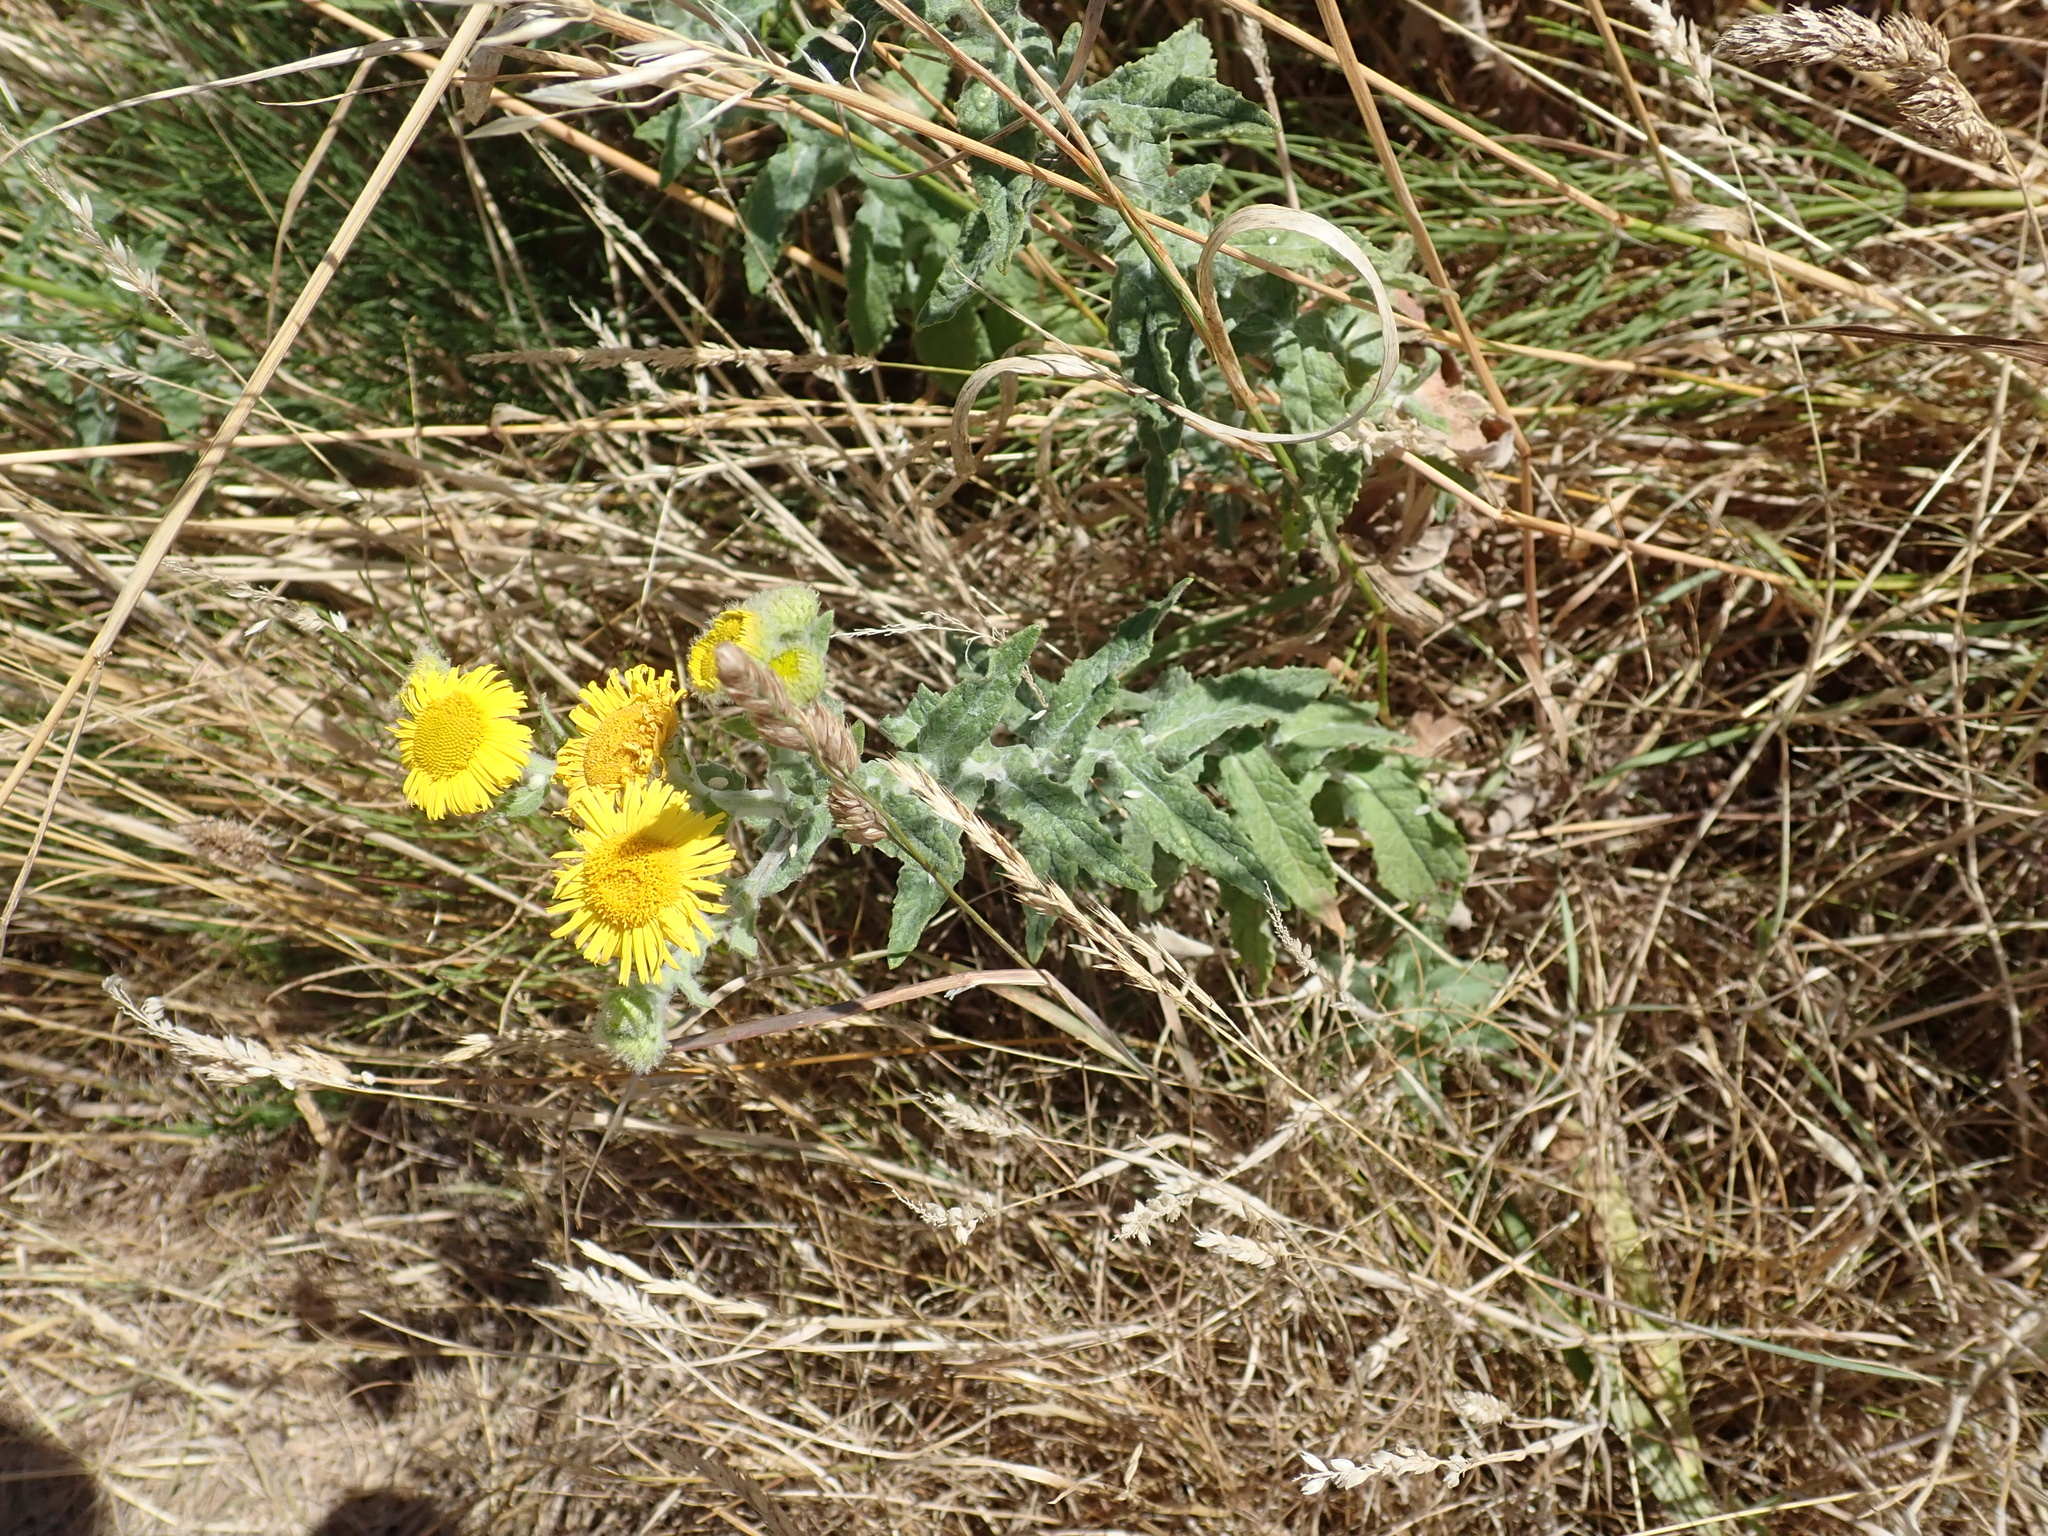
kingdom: Plantae
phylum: Tracheophyta
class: Magnoliopsida
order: Asterales
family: Asteraceae
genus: Pulicaria
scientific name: Pulicaria dysenterica
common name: Common fleabane
